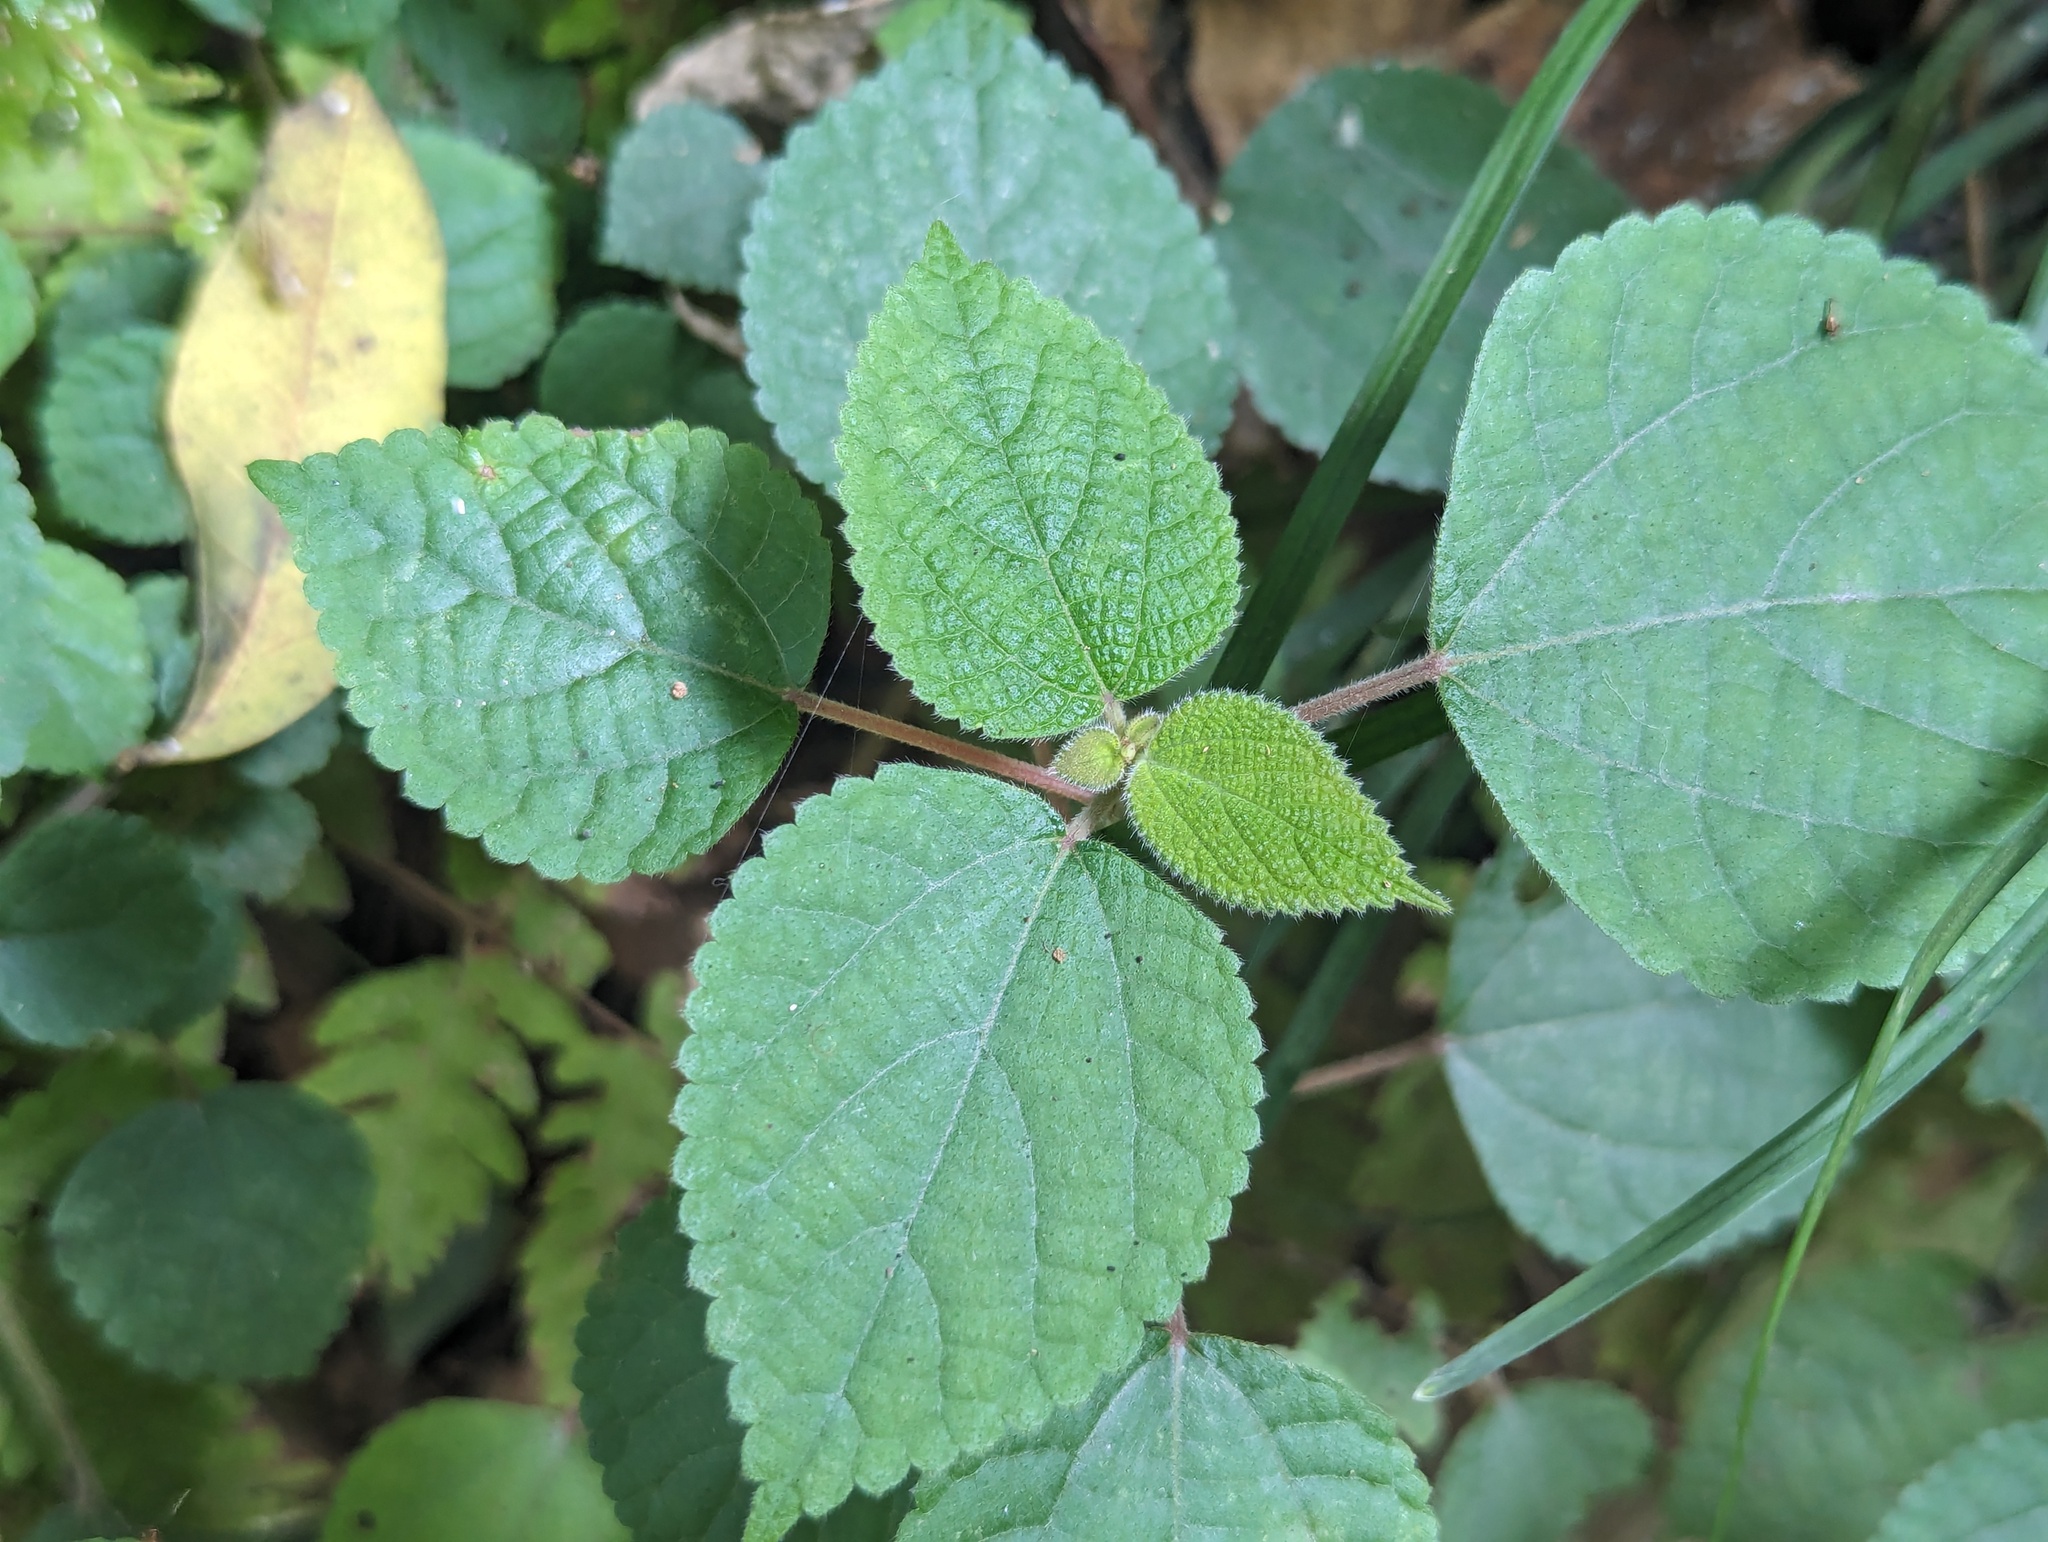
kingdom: Plantae
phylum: Tracheophyta
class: Magnoliopsida
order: Rosales
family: Urticaceae
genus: Boehmeria
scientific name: Boehmeria nivea
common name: Ramie chinese grass
